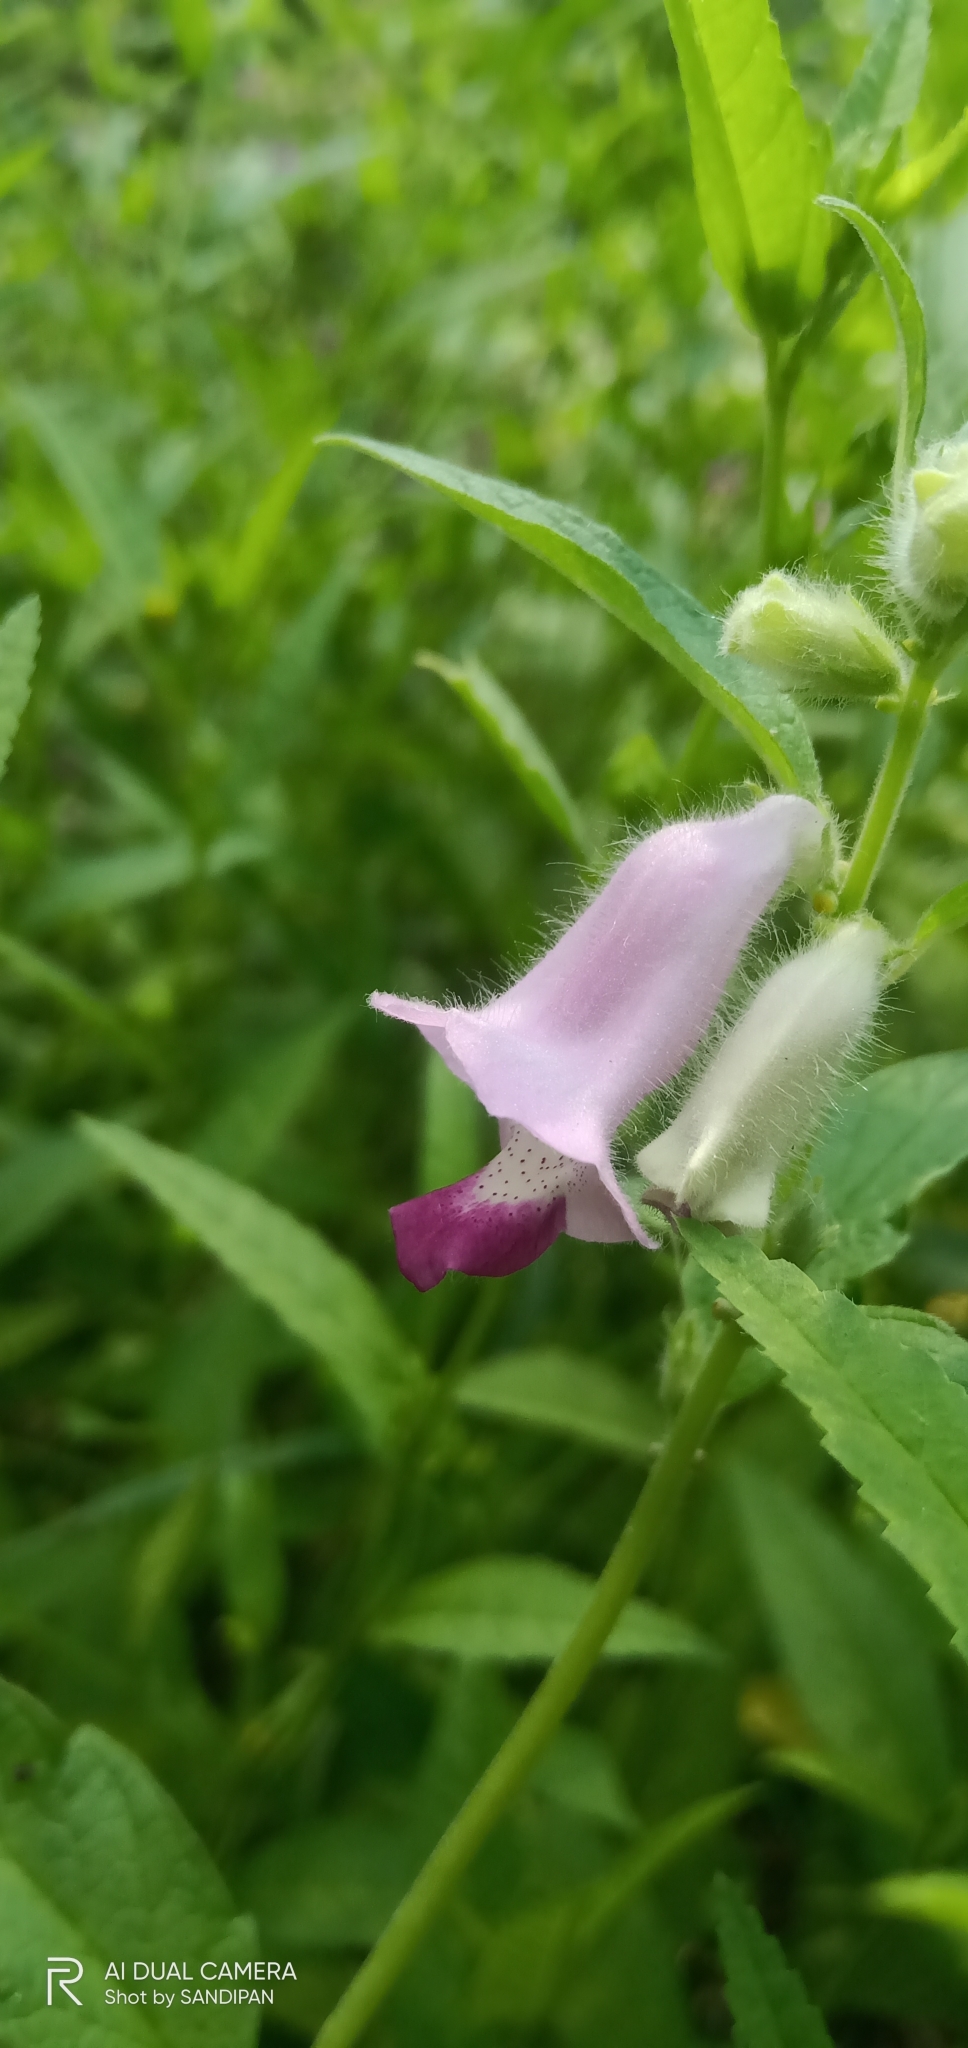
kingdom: Plantae
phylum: Tracheophyta
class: Magnoliopsida
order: Lamiales
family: Pedaliaceae
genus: Sesamum
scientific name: Sesamum indicum
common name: Sesame
